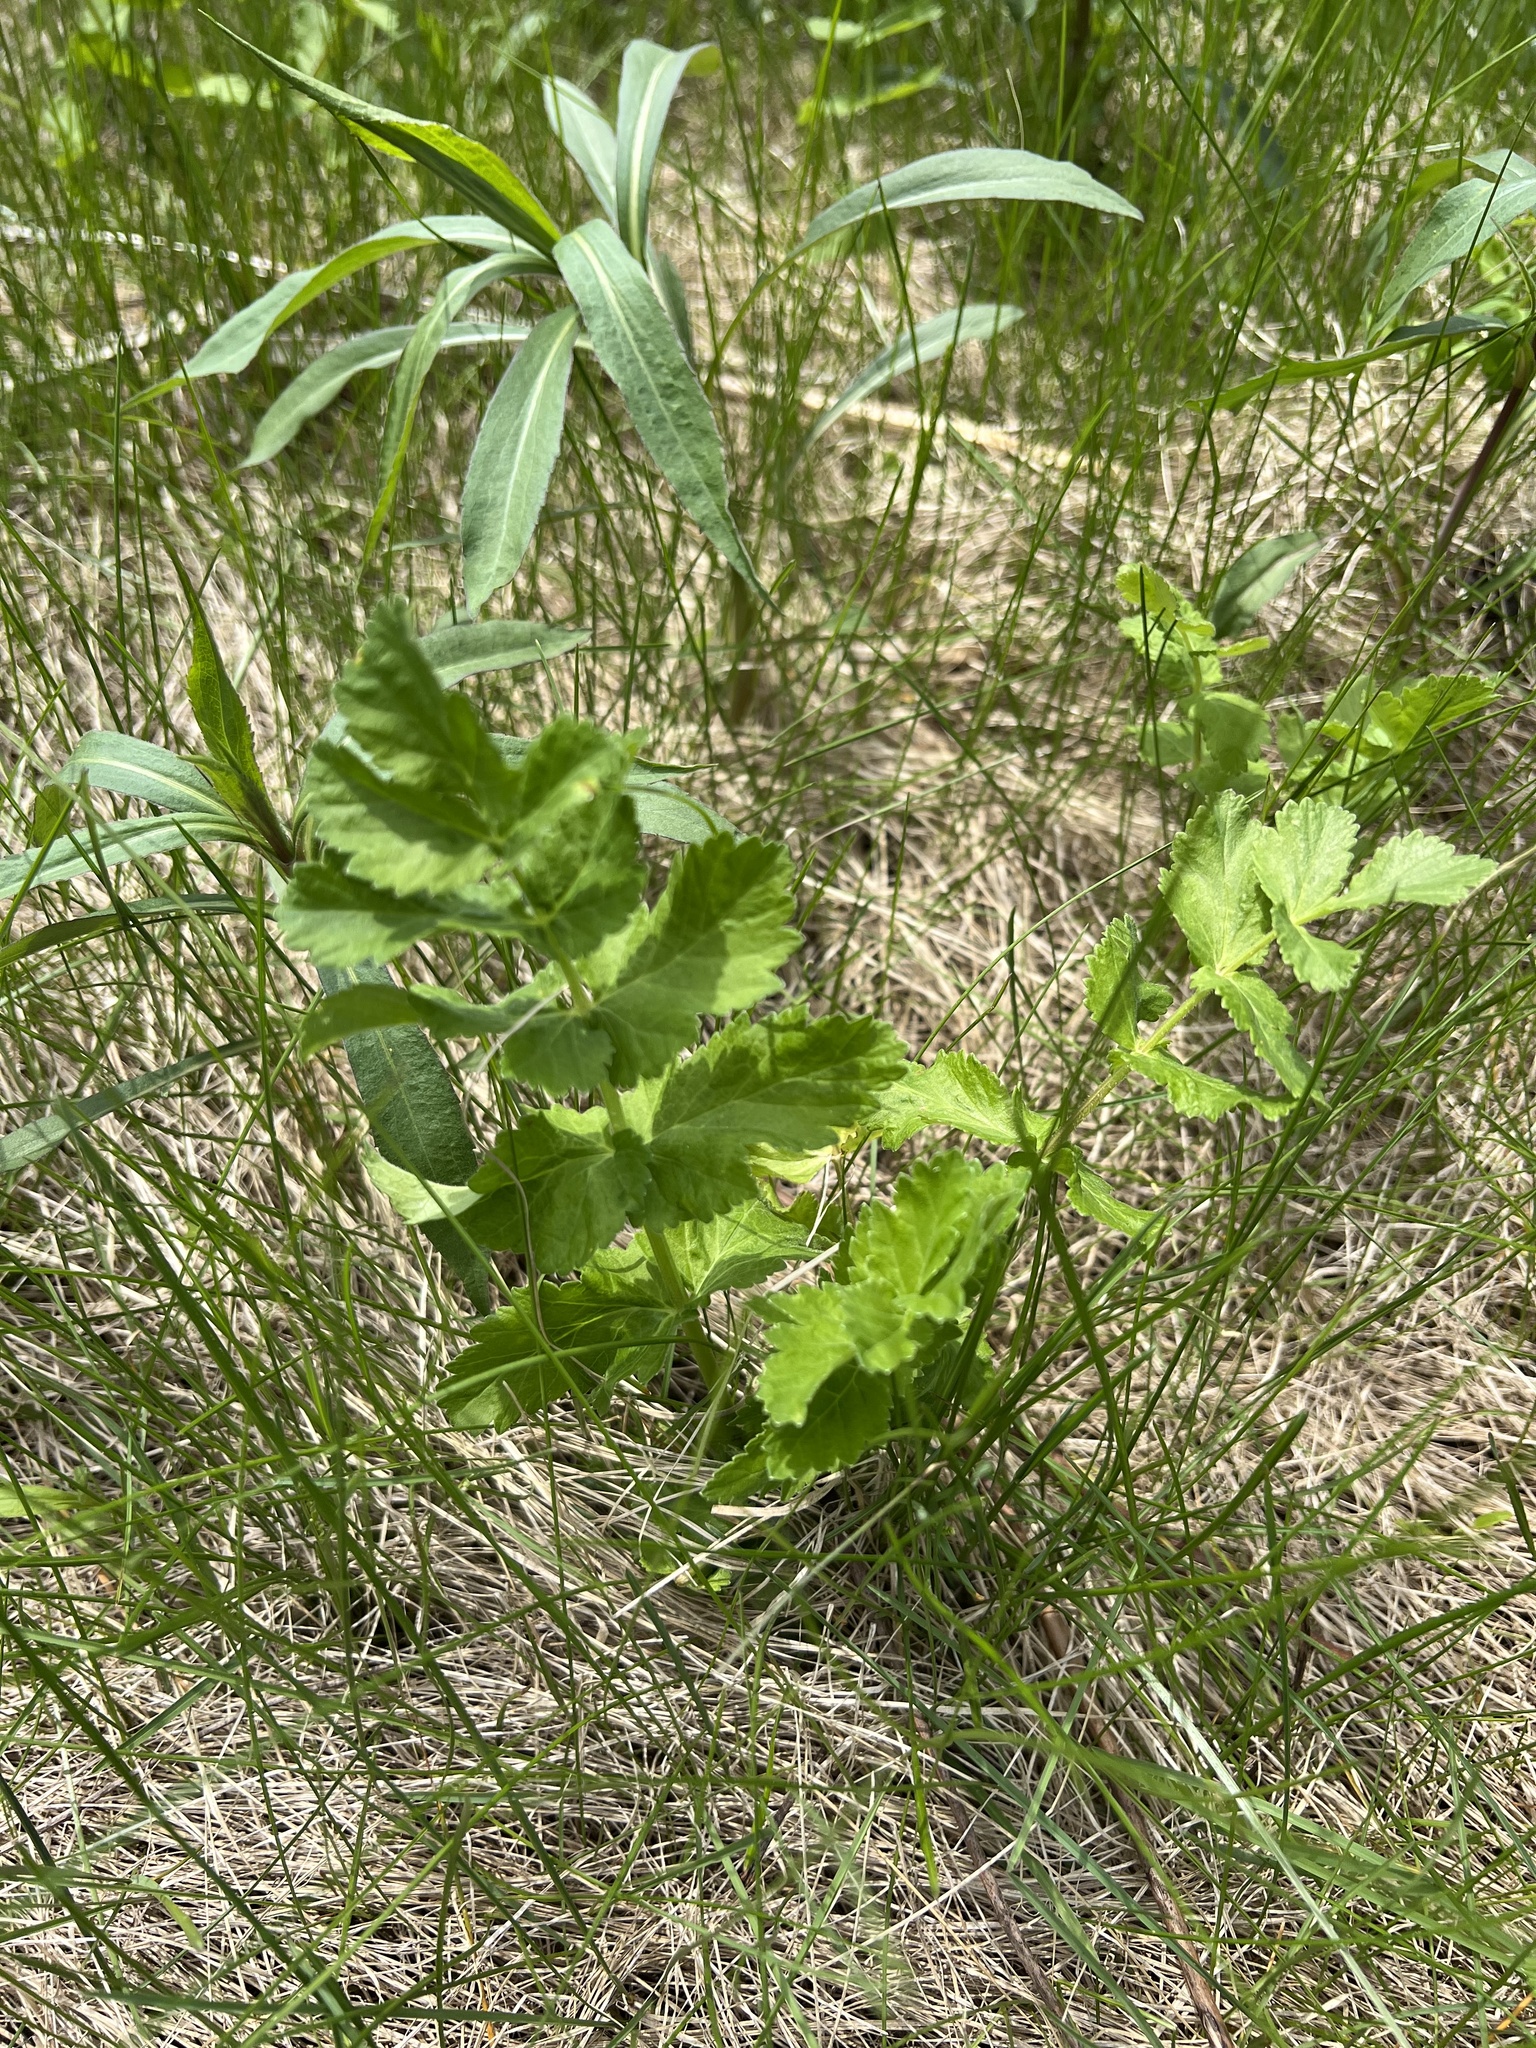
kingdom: Plantae
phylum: Tracheophyta
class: Magnoliopsida
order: Apiales
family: Apiaceae
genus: Pastinaca
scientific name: Pastinaca sativa
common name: Wild parsnip
